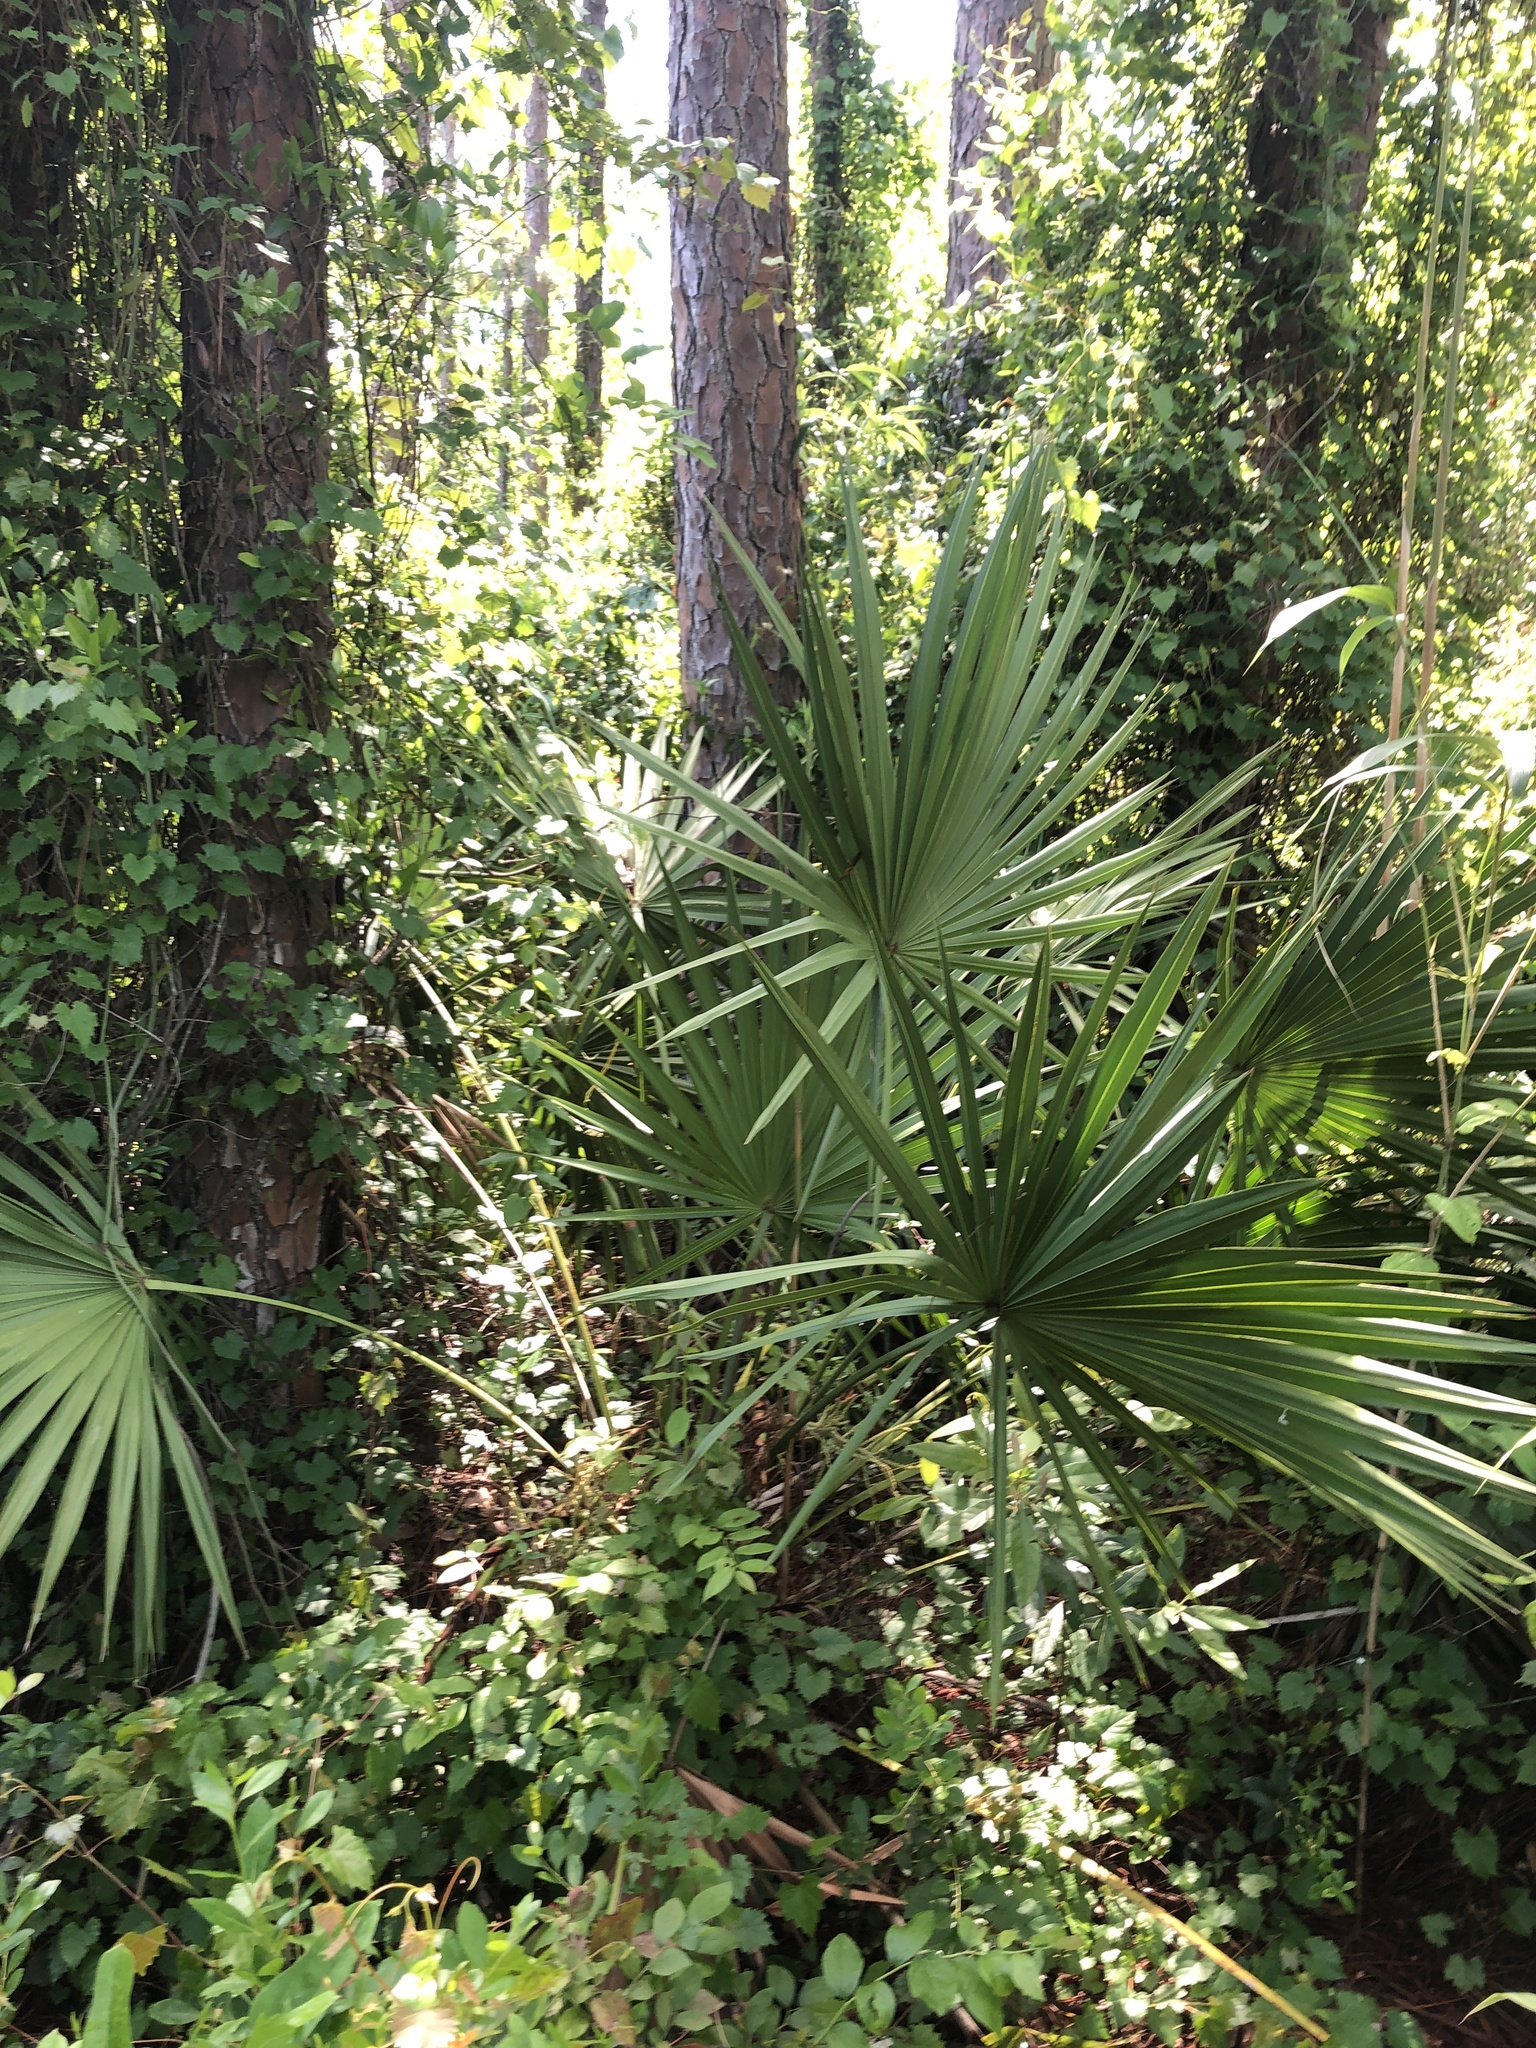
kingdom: Plantae
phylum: Tracheophyta
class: Liliopsida
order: Arecales
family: Arecaceae
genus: Serenoa
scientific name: Serenoa repens
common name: Saw-palmetto
